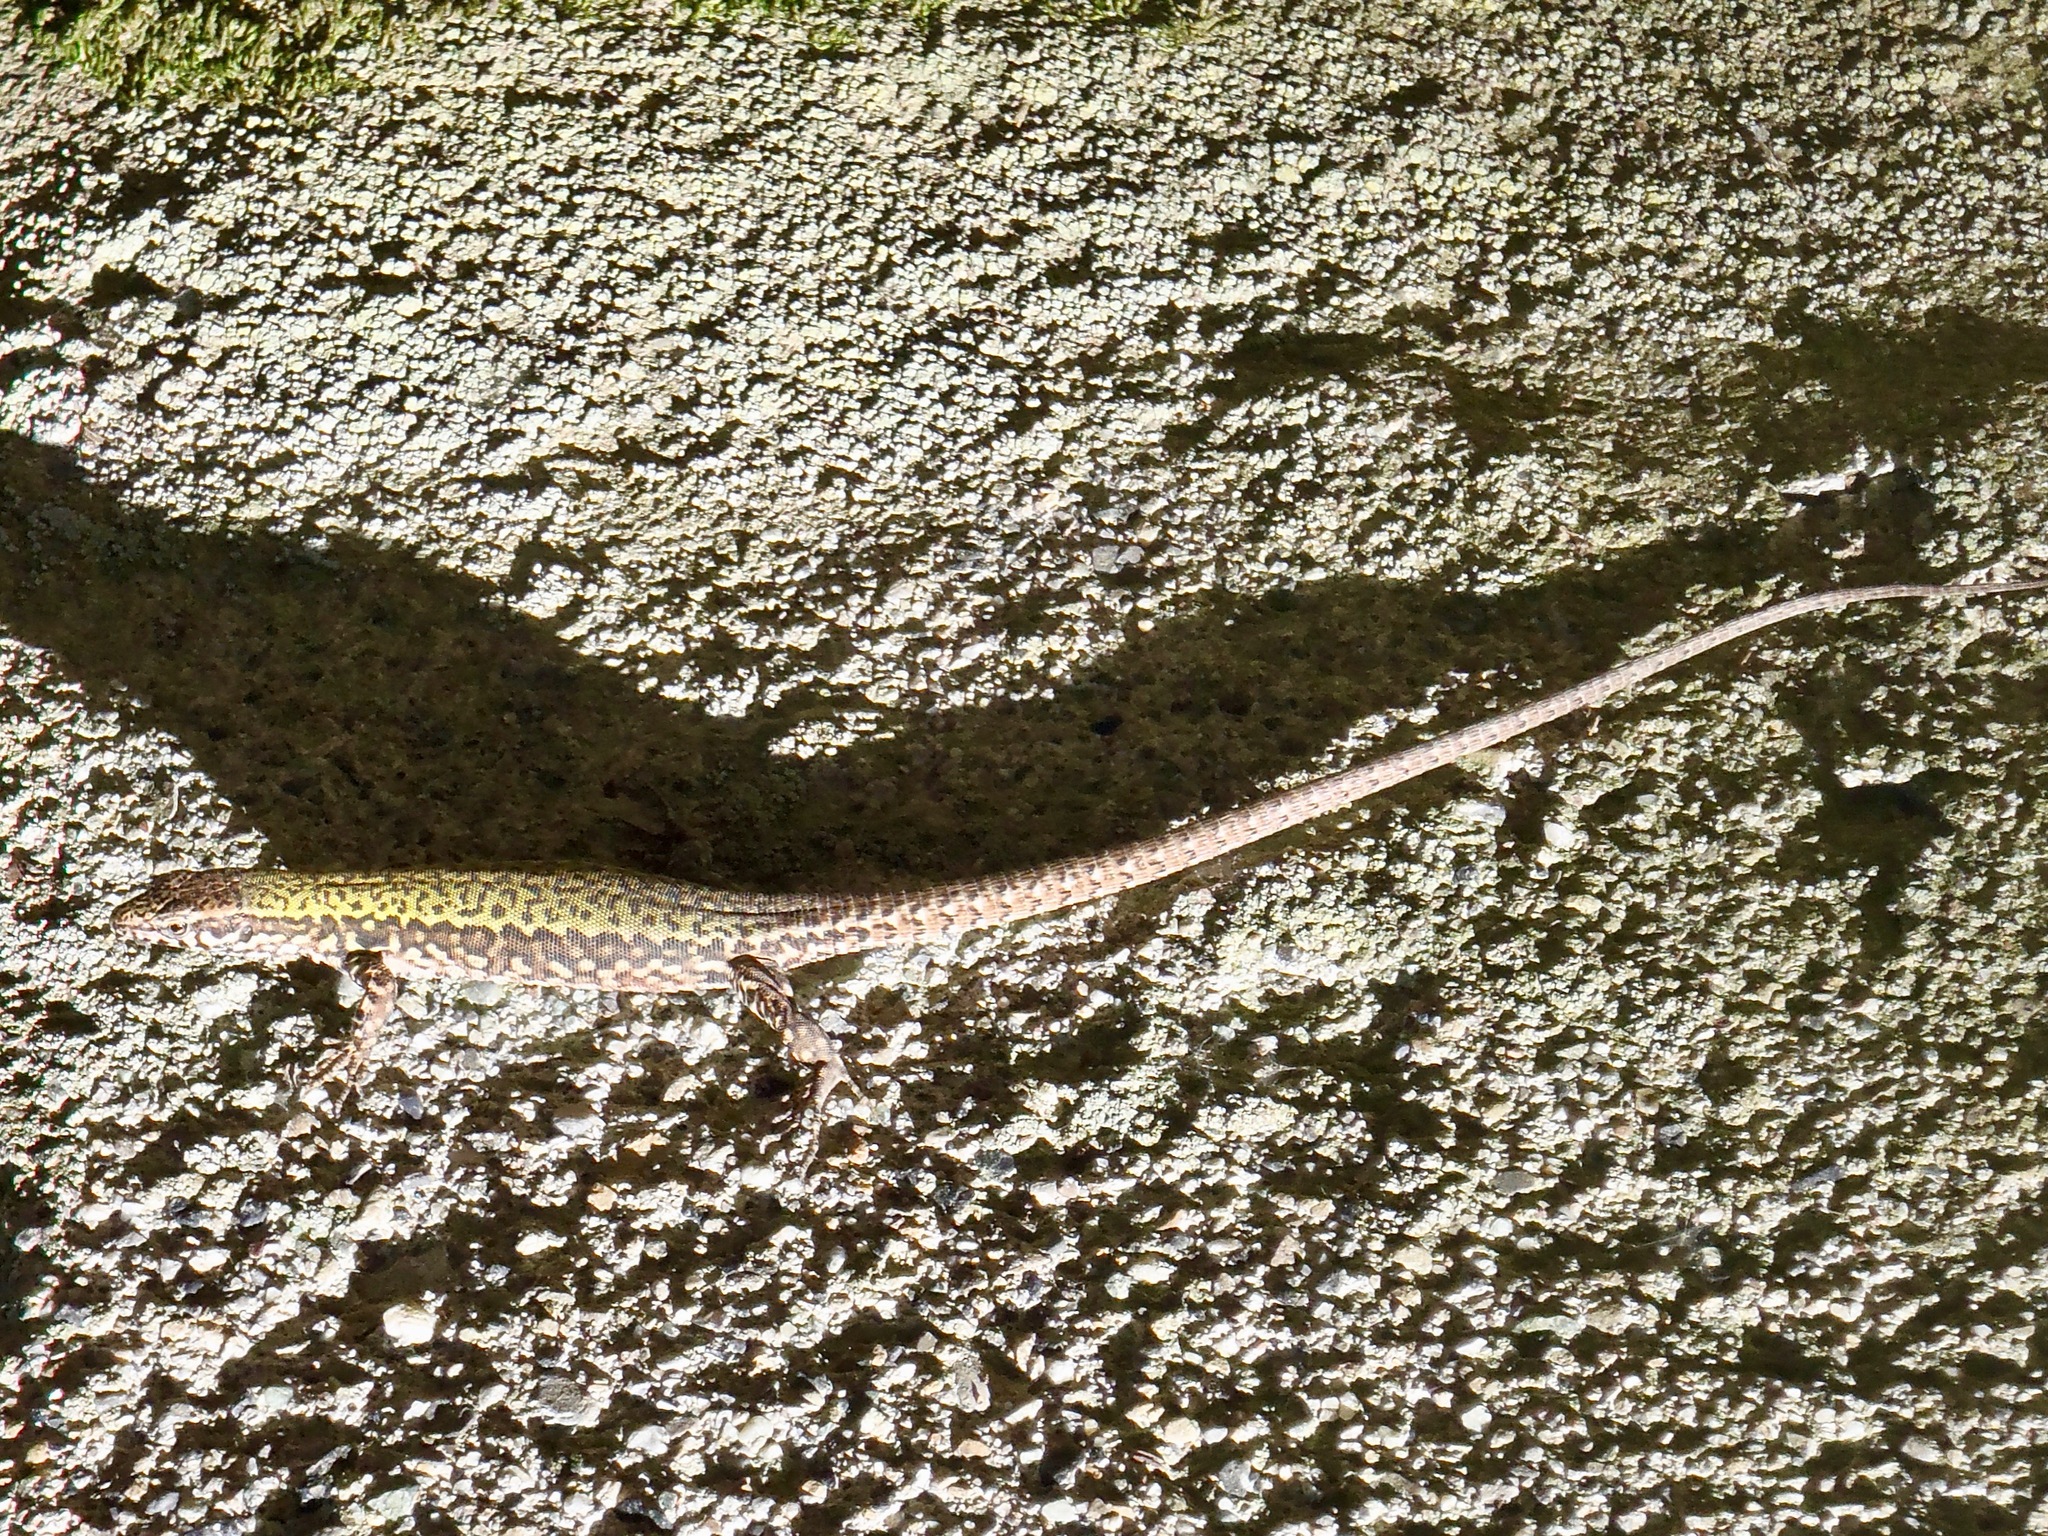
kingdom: Animalia
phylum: Chordata
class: Squamata
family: Lacertidae
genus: Podarcis
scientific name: Podarcis muralis
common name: Common wall lizard
